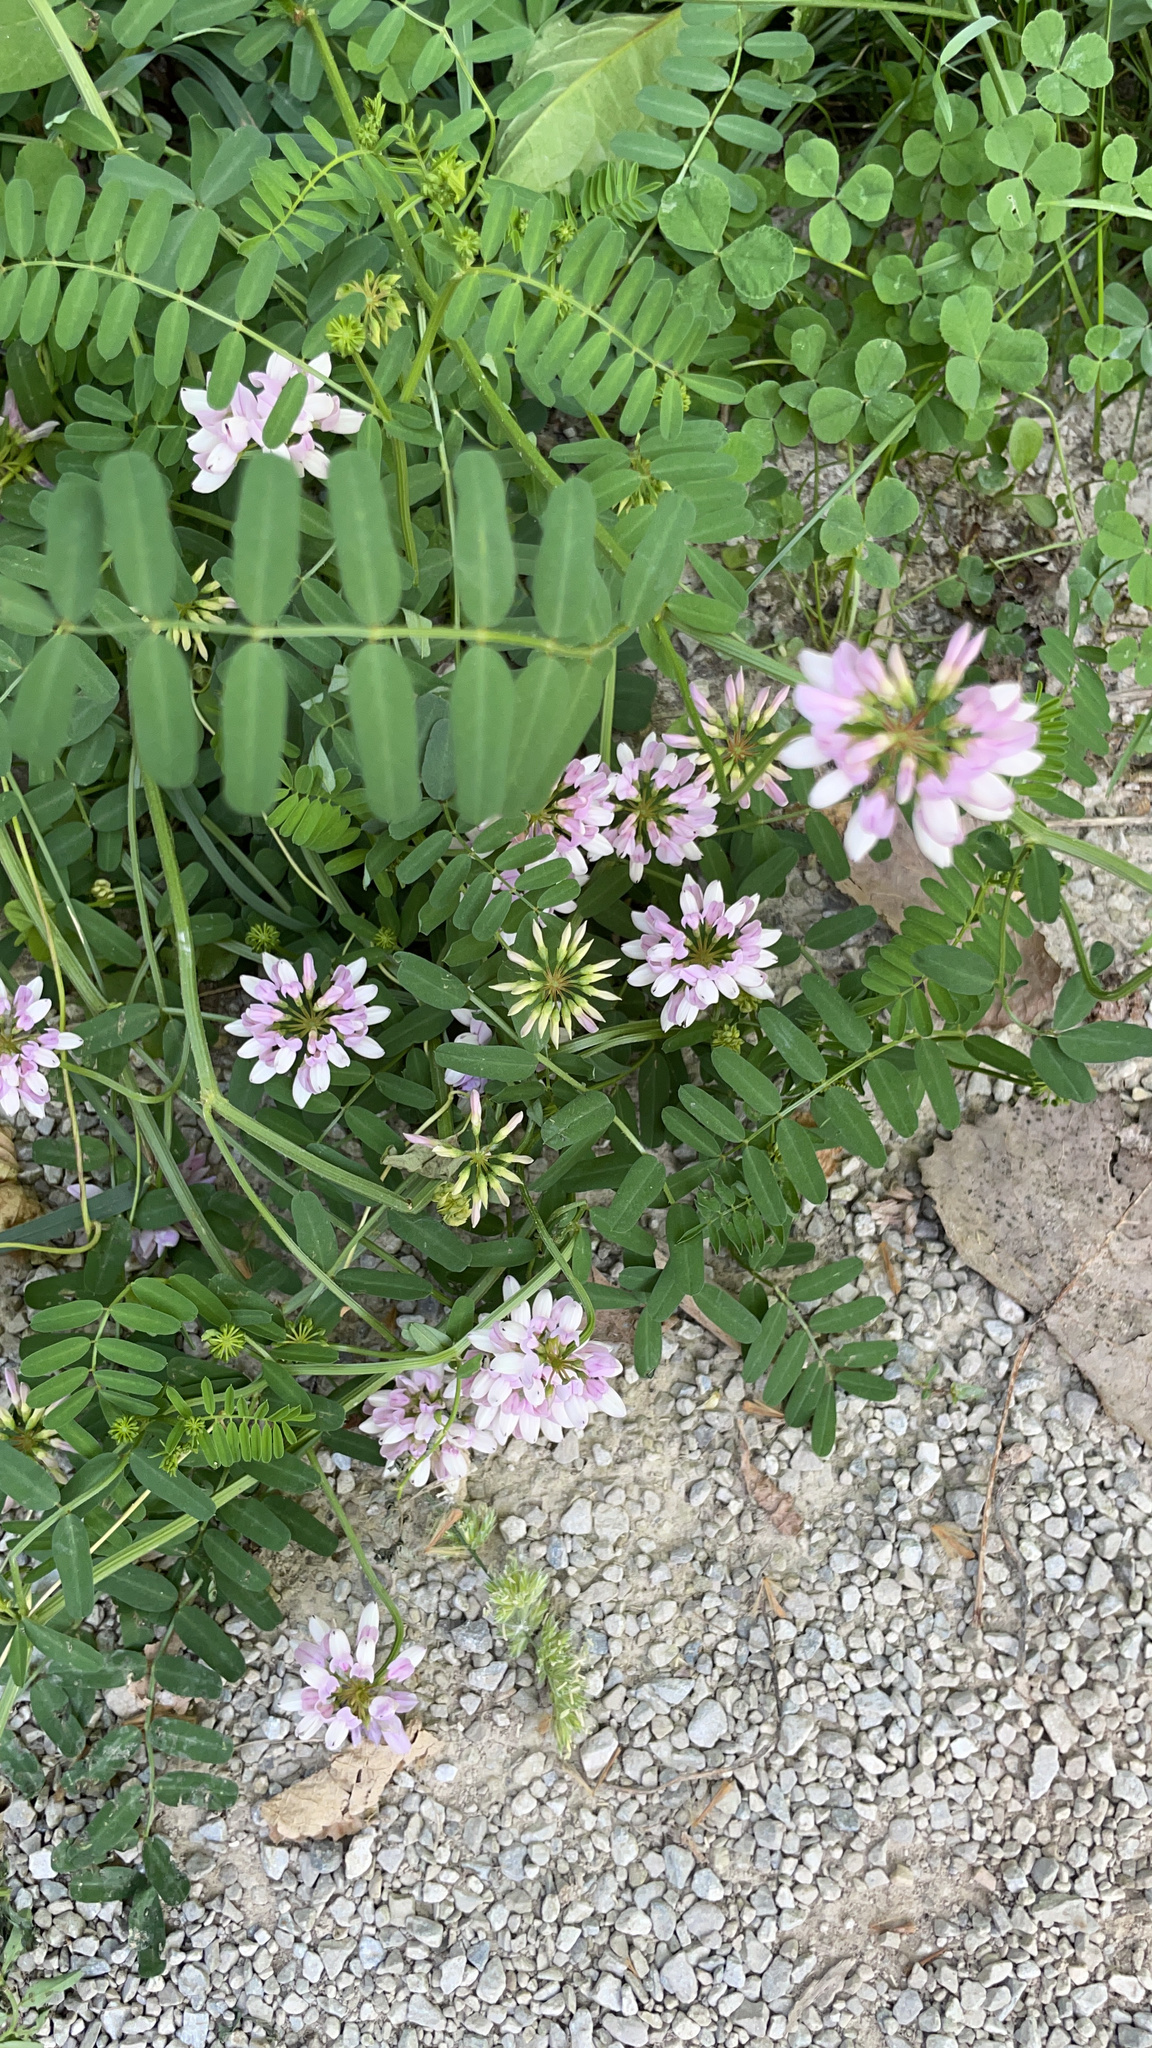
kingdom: Plantae
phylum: Tracheophyta
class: Magnoliopsida
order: Fabales
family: Fabaceae
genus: Coronilla
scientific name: Coronilla varia
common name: Crownvetch
